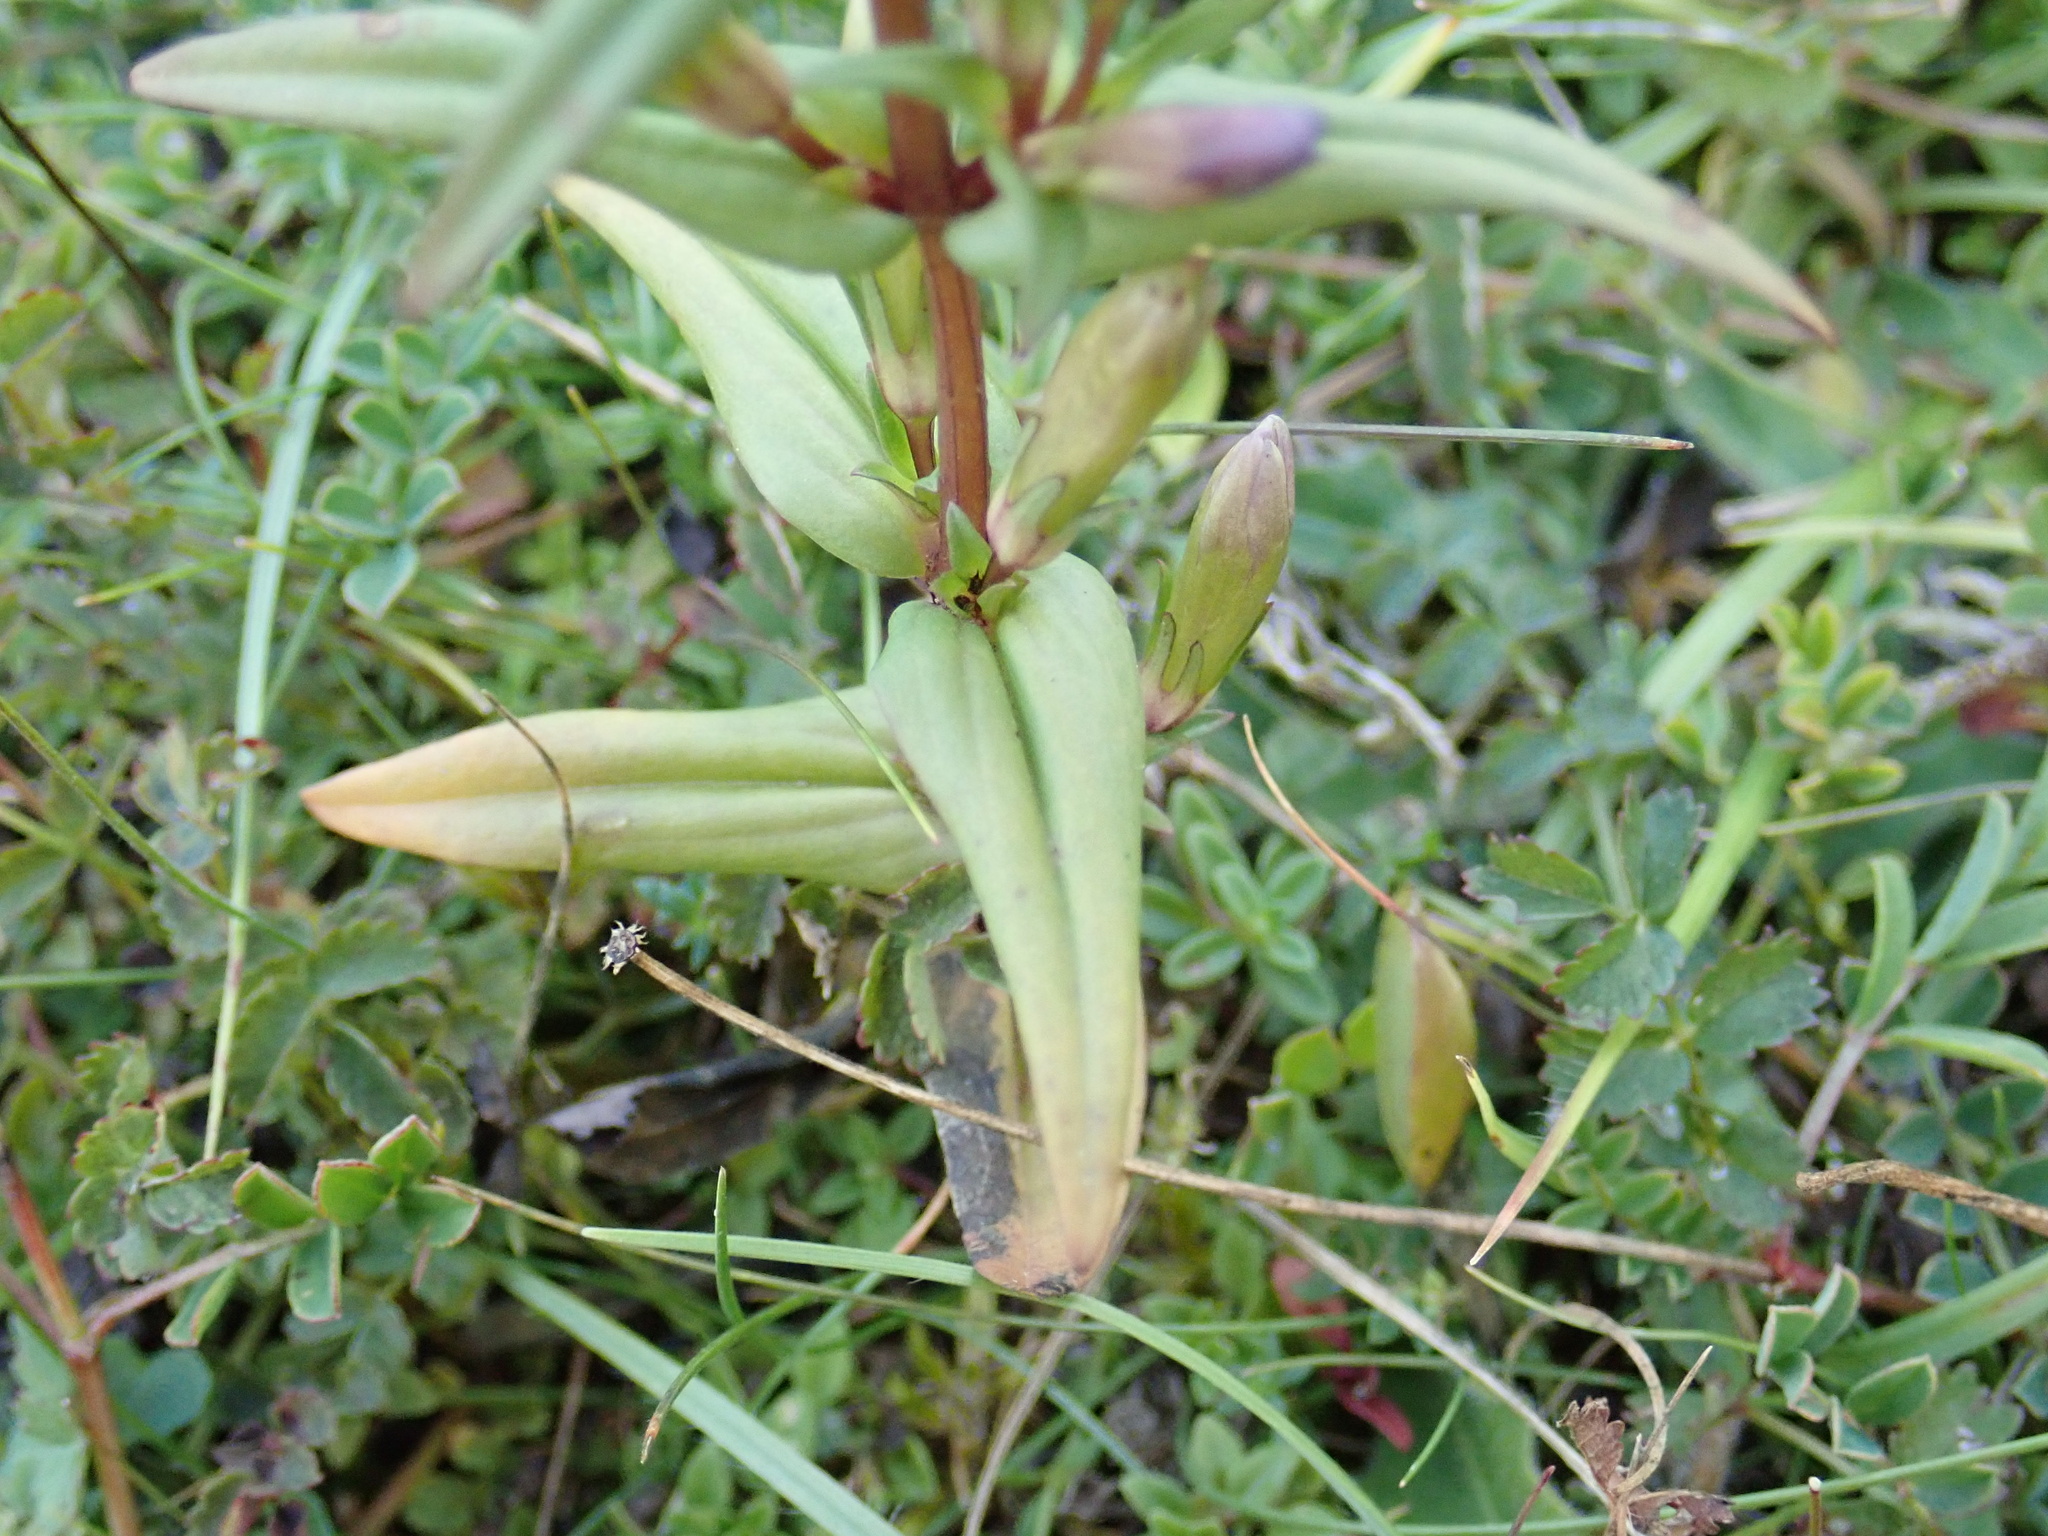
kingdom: Plantae
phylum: Tracheophyta
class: Magnoliopsida
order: Gentianales
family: Gentianaceae
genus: Gentianella
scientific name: Gentianella germanica
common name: Chiltern-gentian
